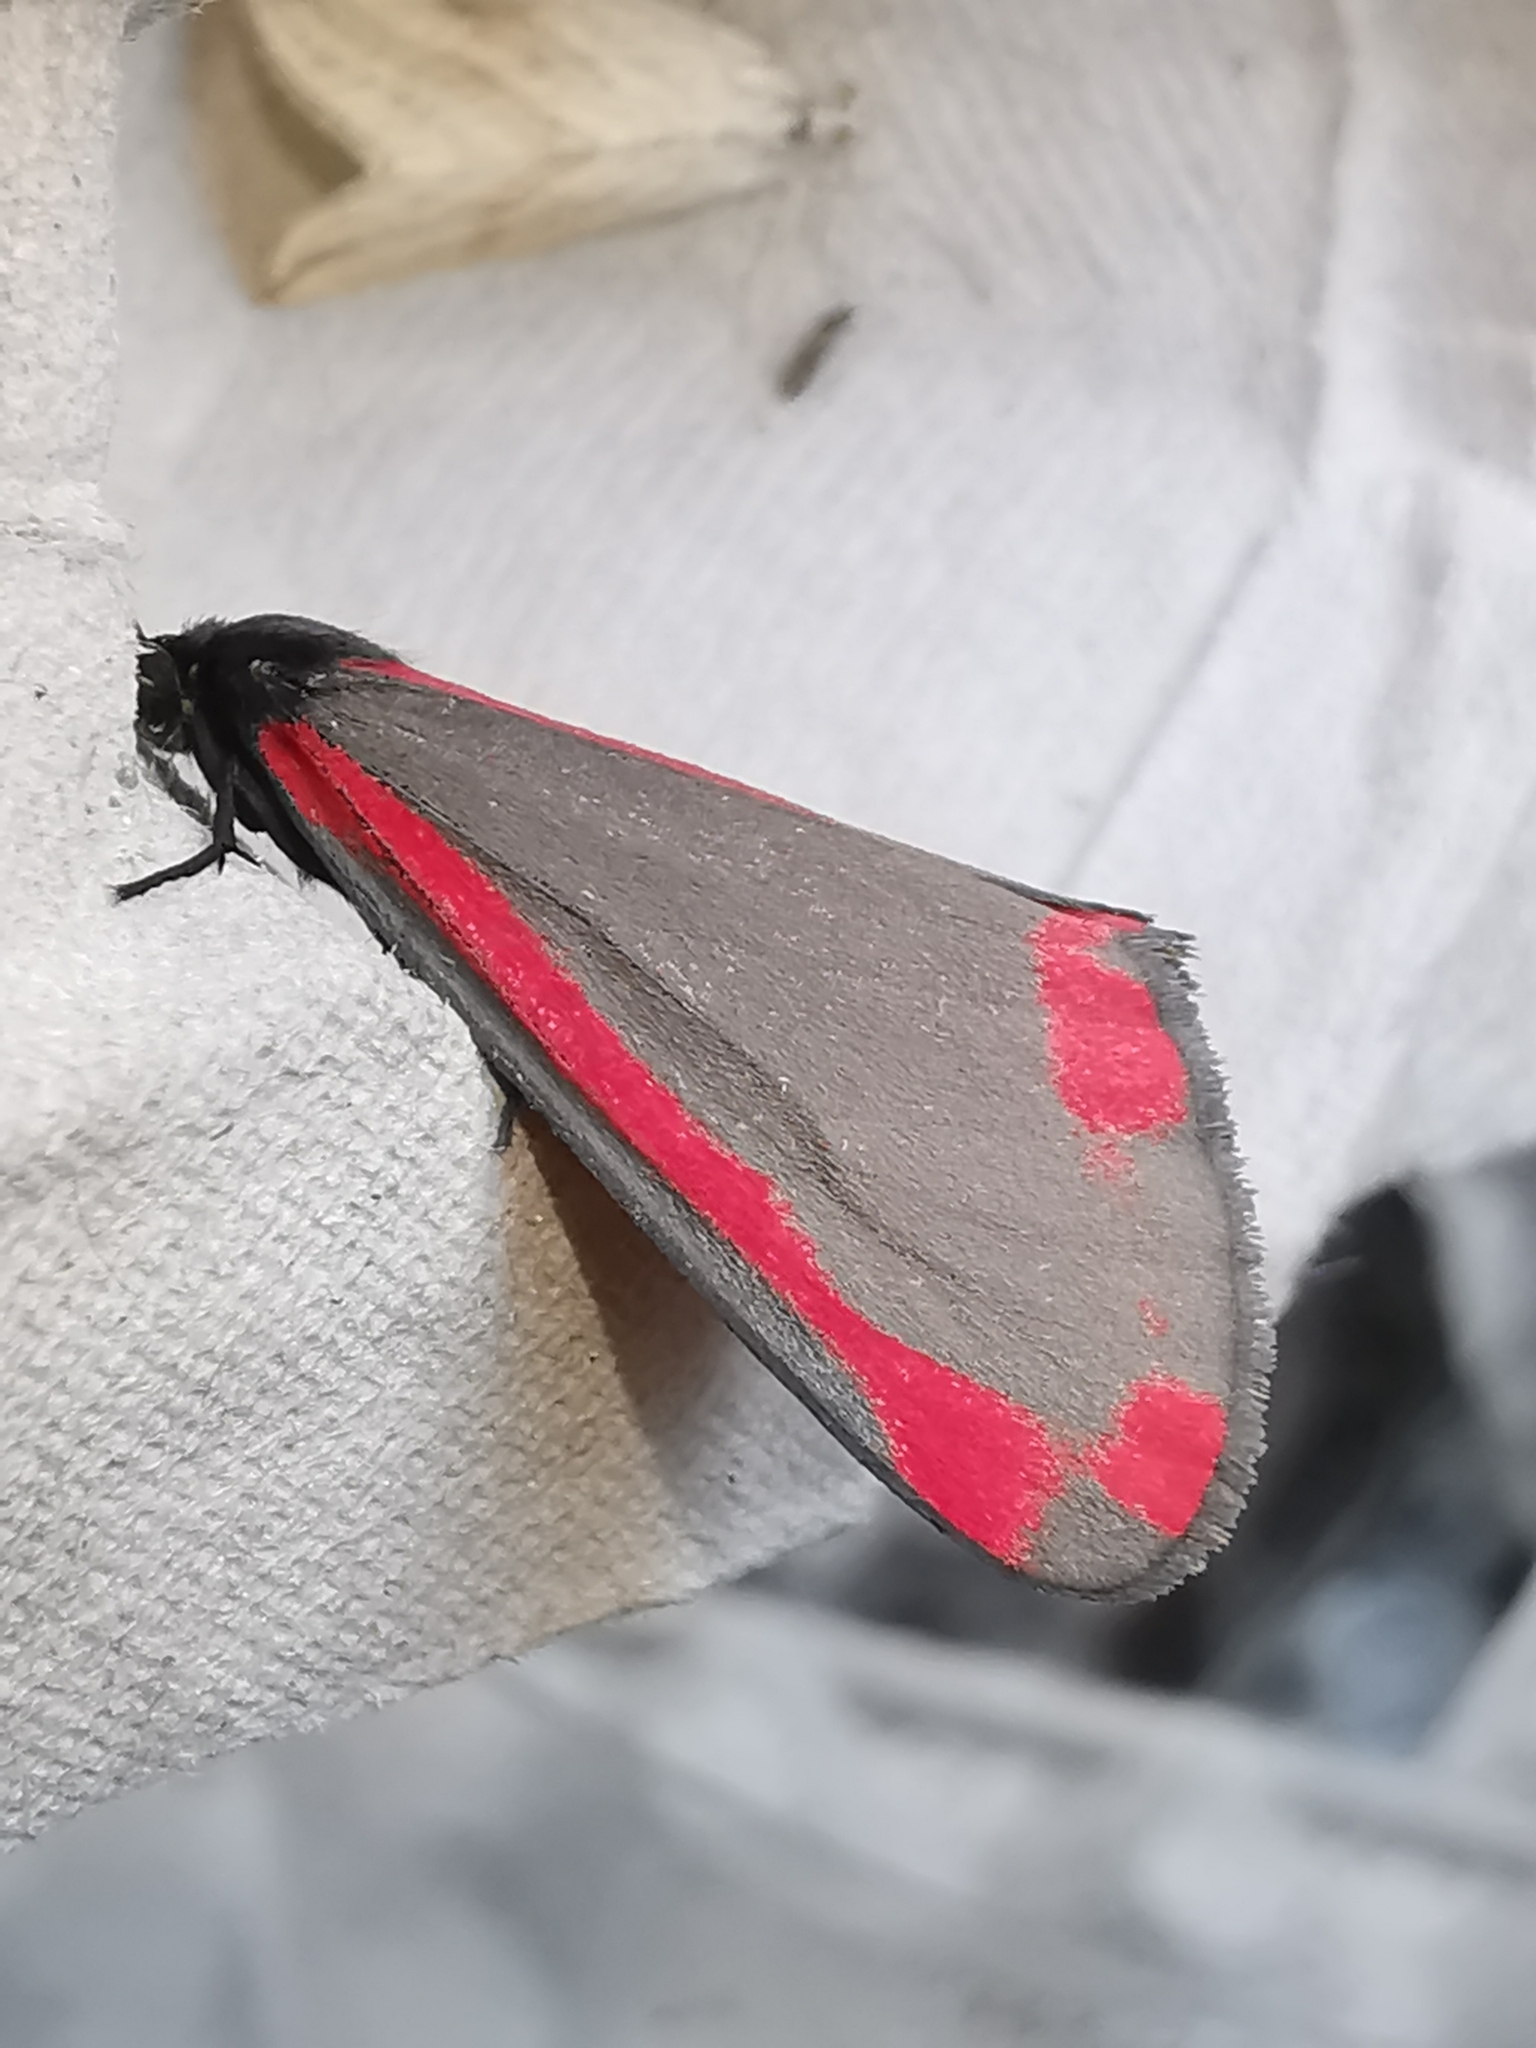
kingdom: Animalia
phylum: Arthropoda
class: Insecta
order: Lepidoptera
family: Erebidae
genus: Tyria
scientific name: Tyria jacobaeae
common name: Cinnabar
